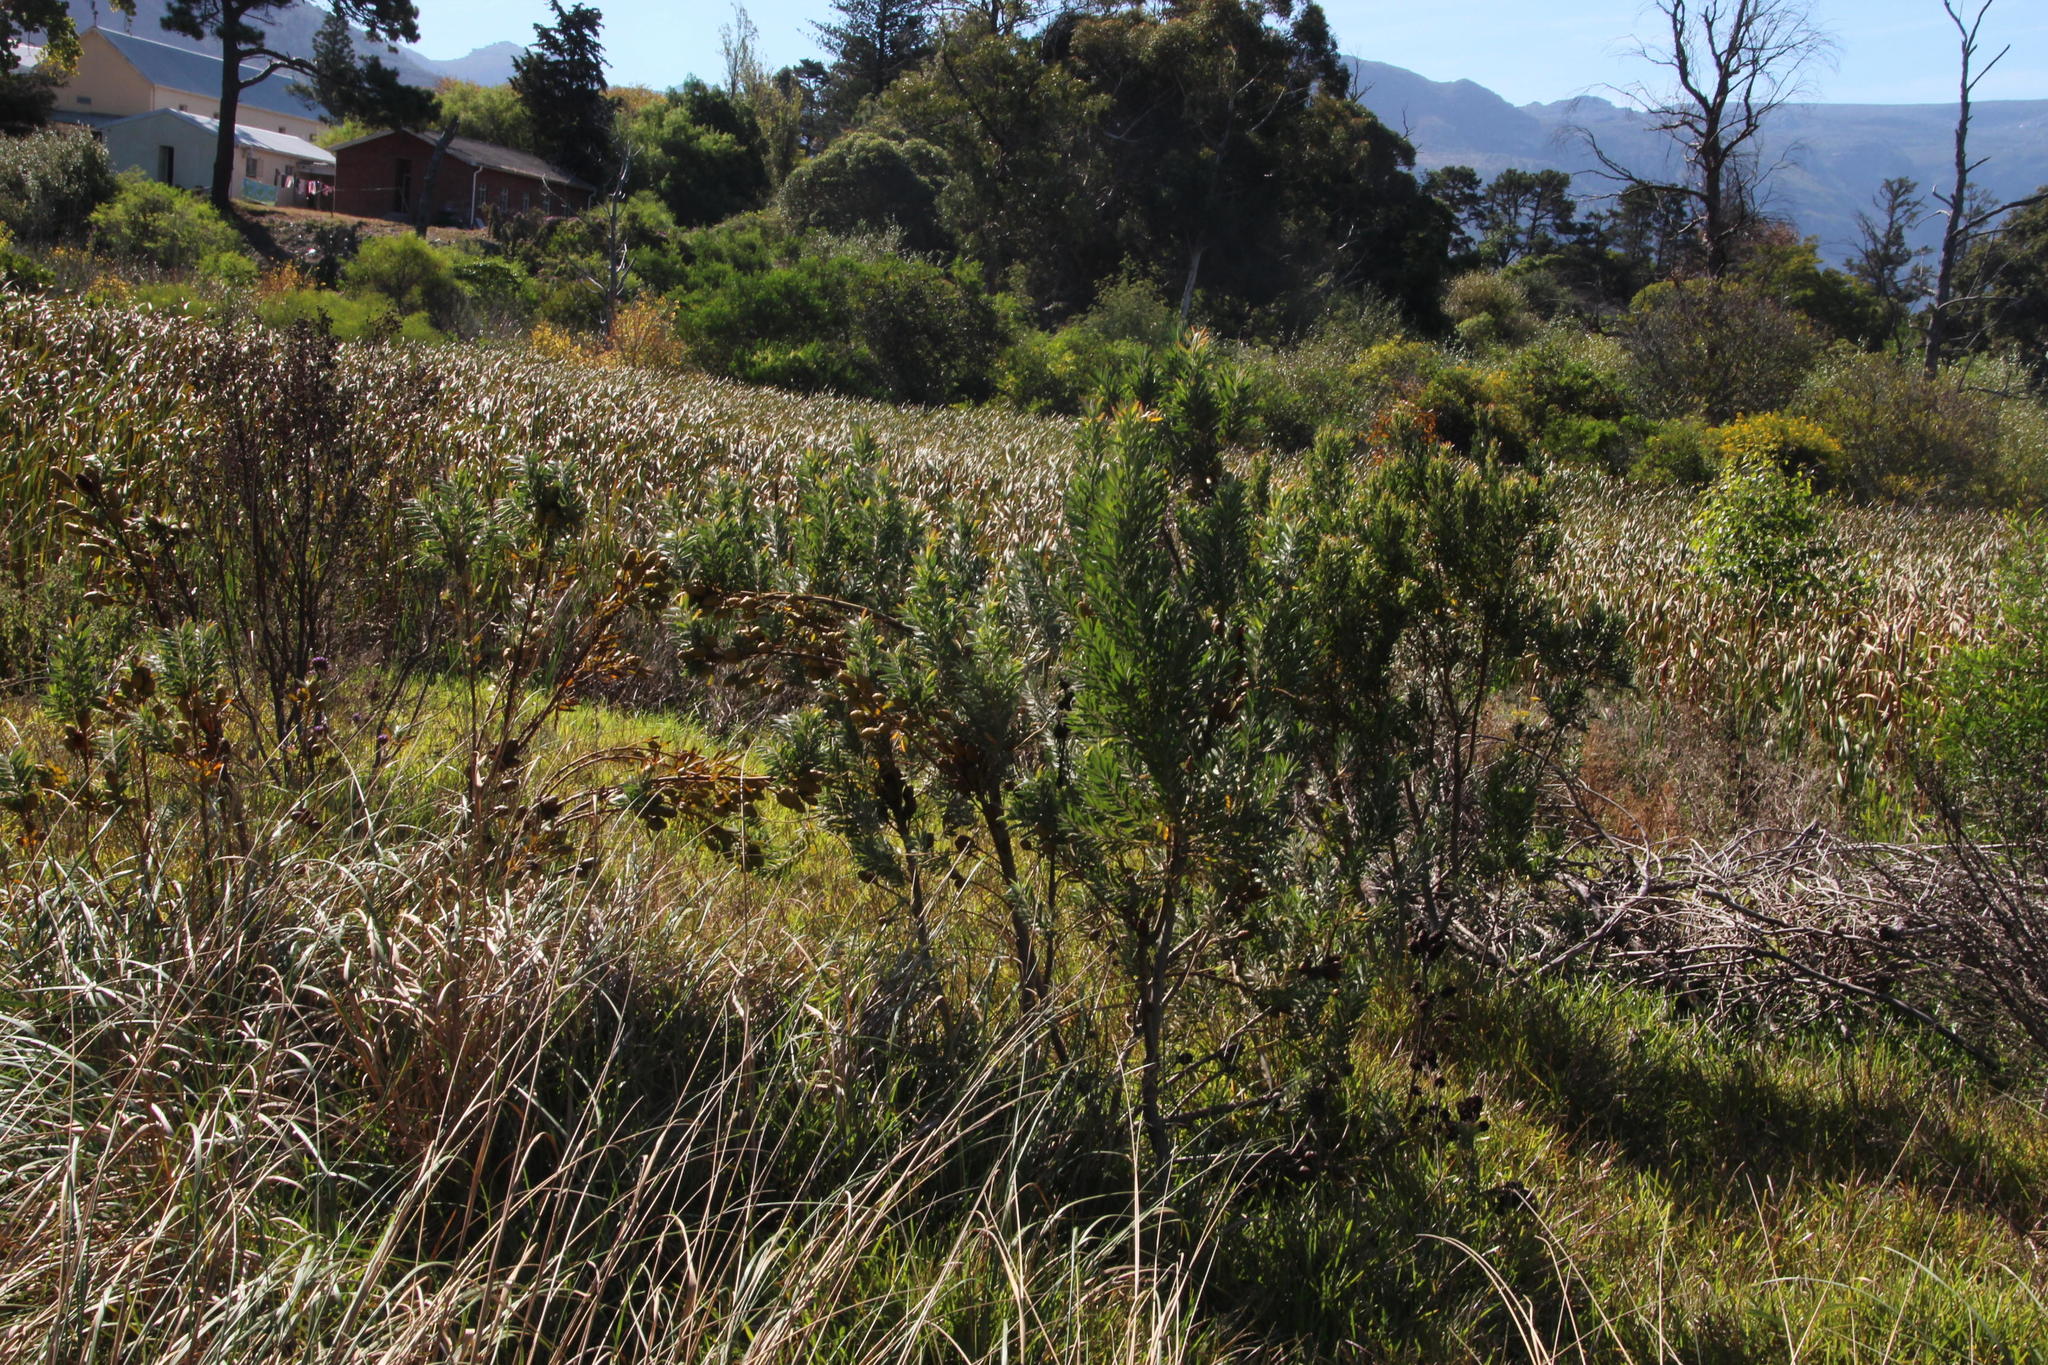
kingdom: Plantae
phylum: Tracheophyta
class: Magnoliopsida
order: Proteales
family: Proteaceae
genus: Leucadendron
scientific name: Leucadendron macowanii
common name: Acacia-leaf conebush
